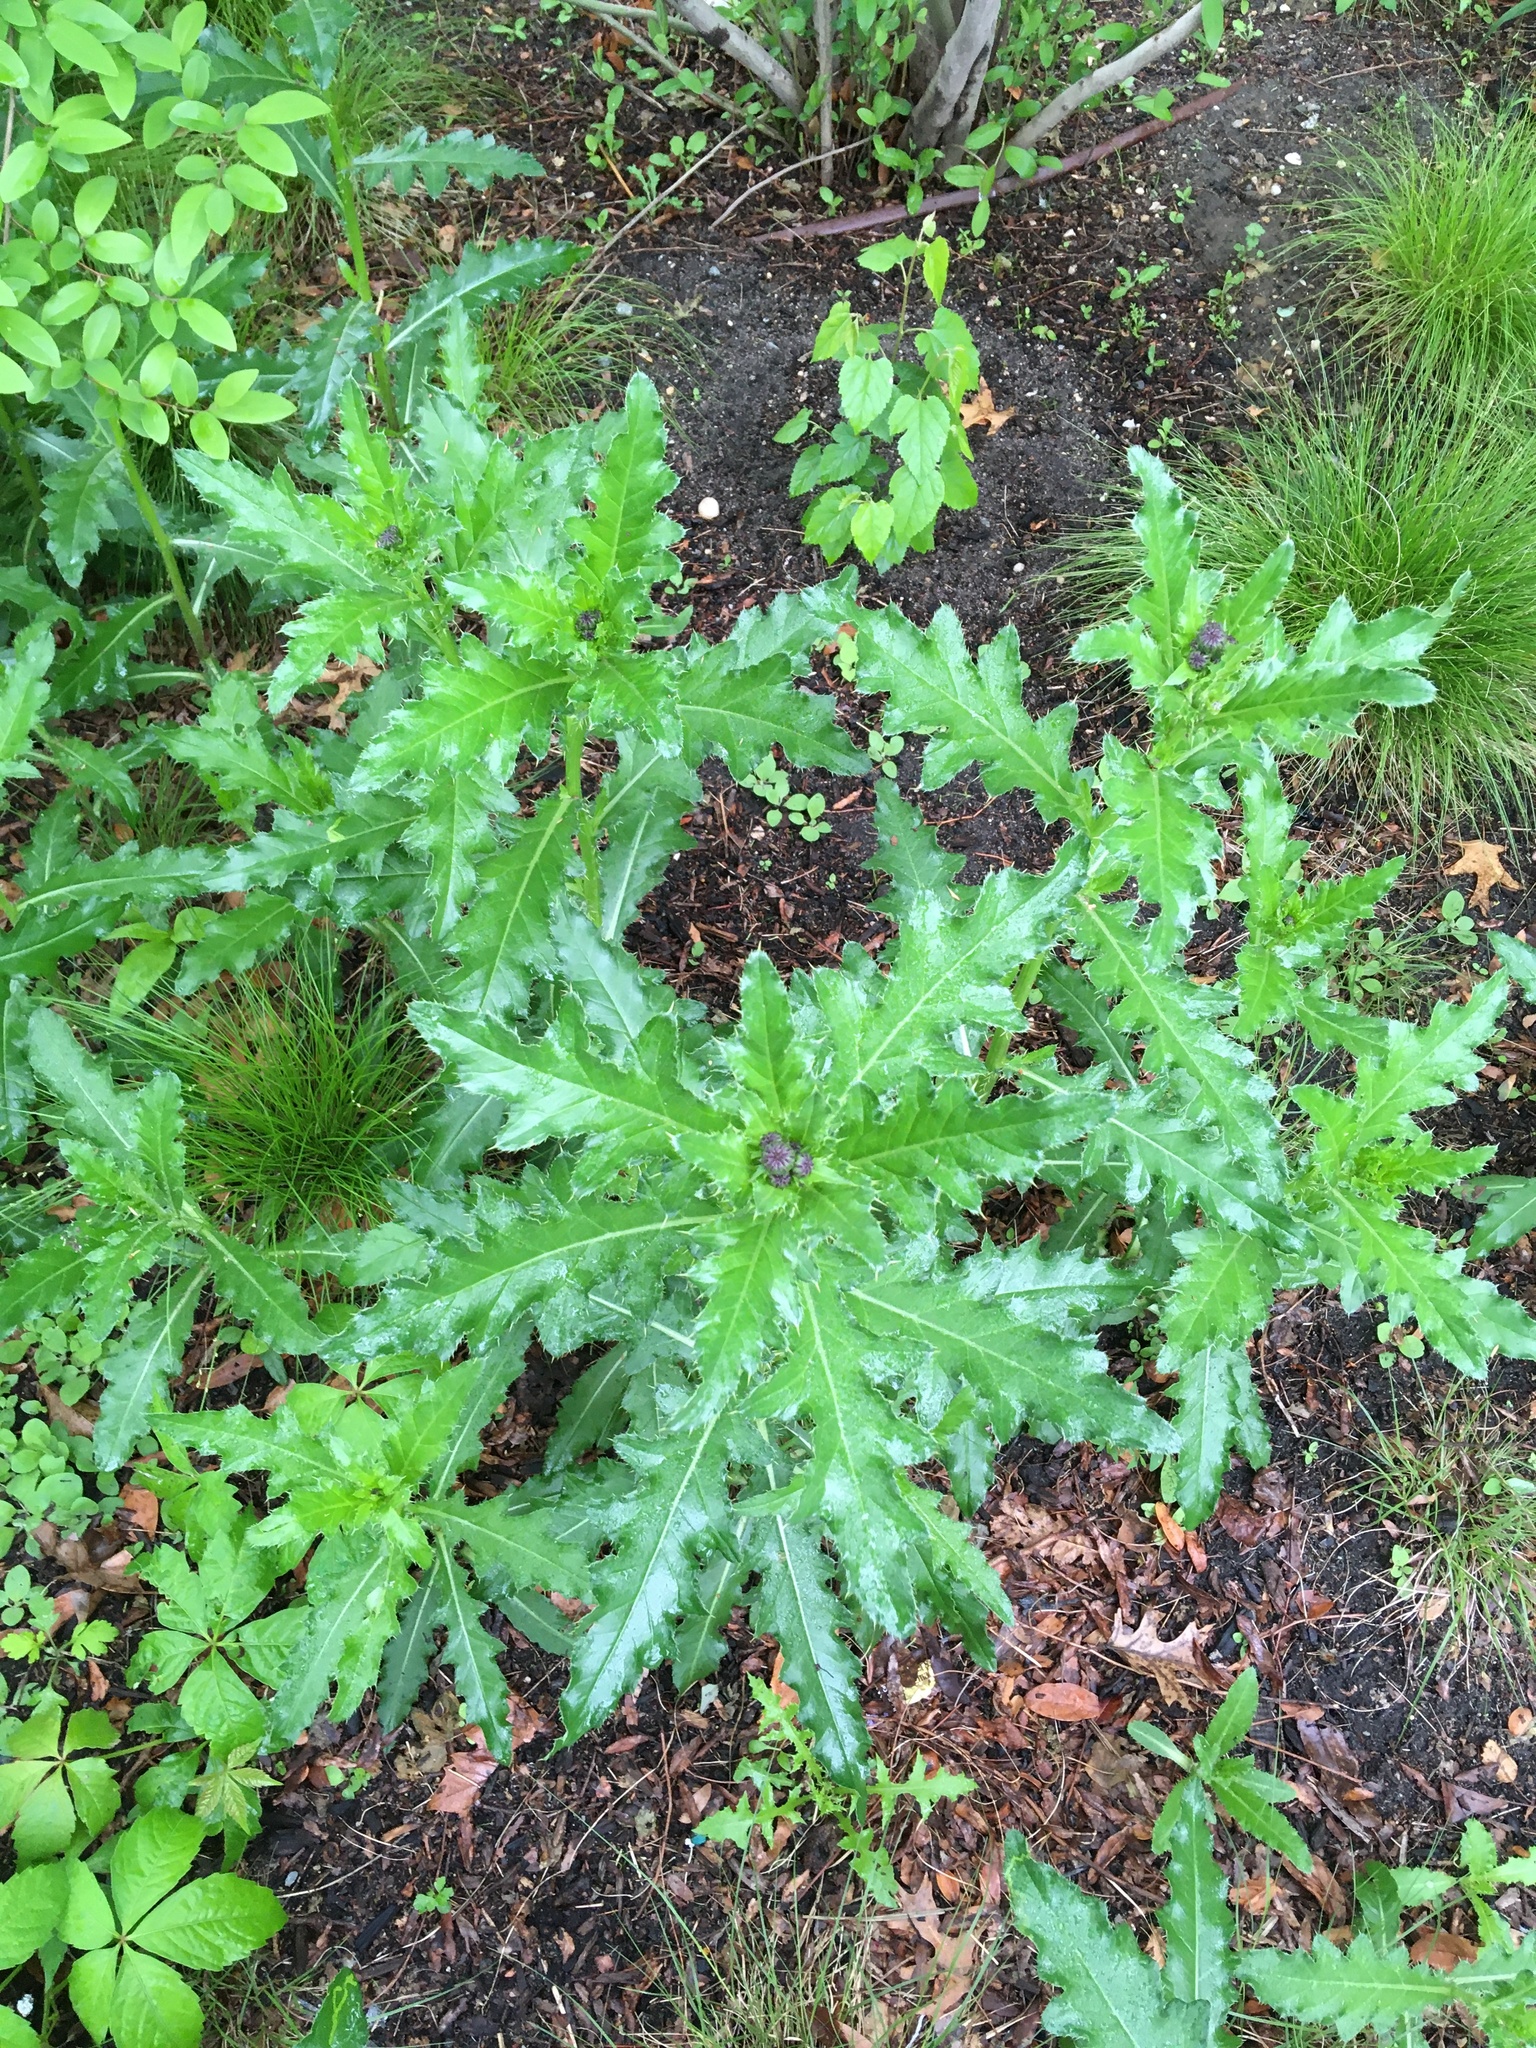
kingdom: Plantae
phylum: Tracheophyta
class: Magnoliopsida
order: Asterales
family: Asteraceae
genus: Cirsium
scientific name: Cirsium arvense
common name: Creeping thistle
